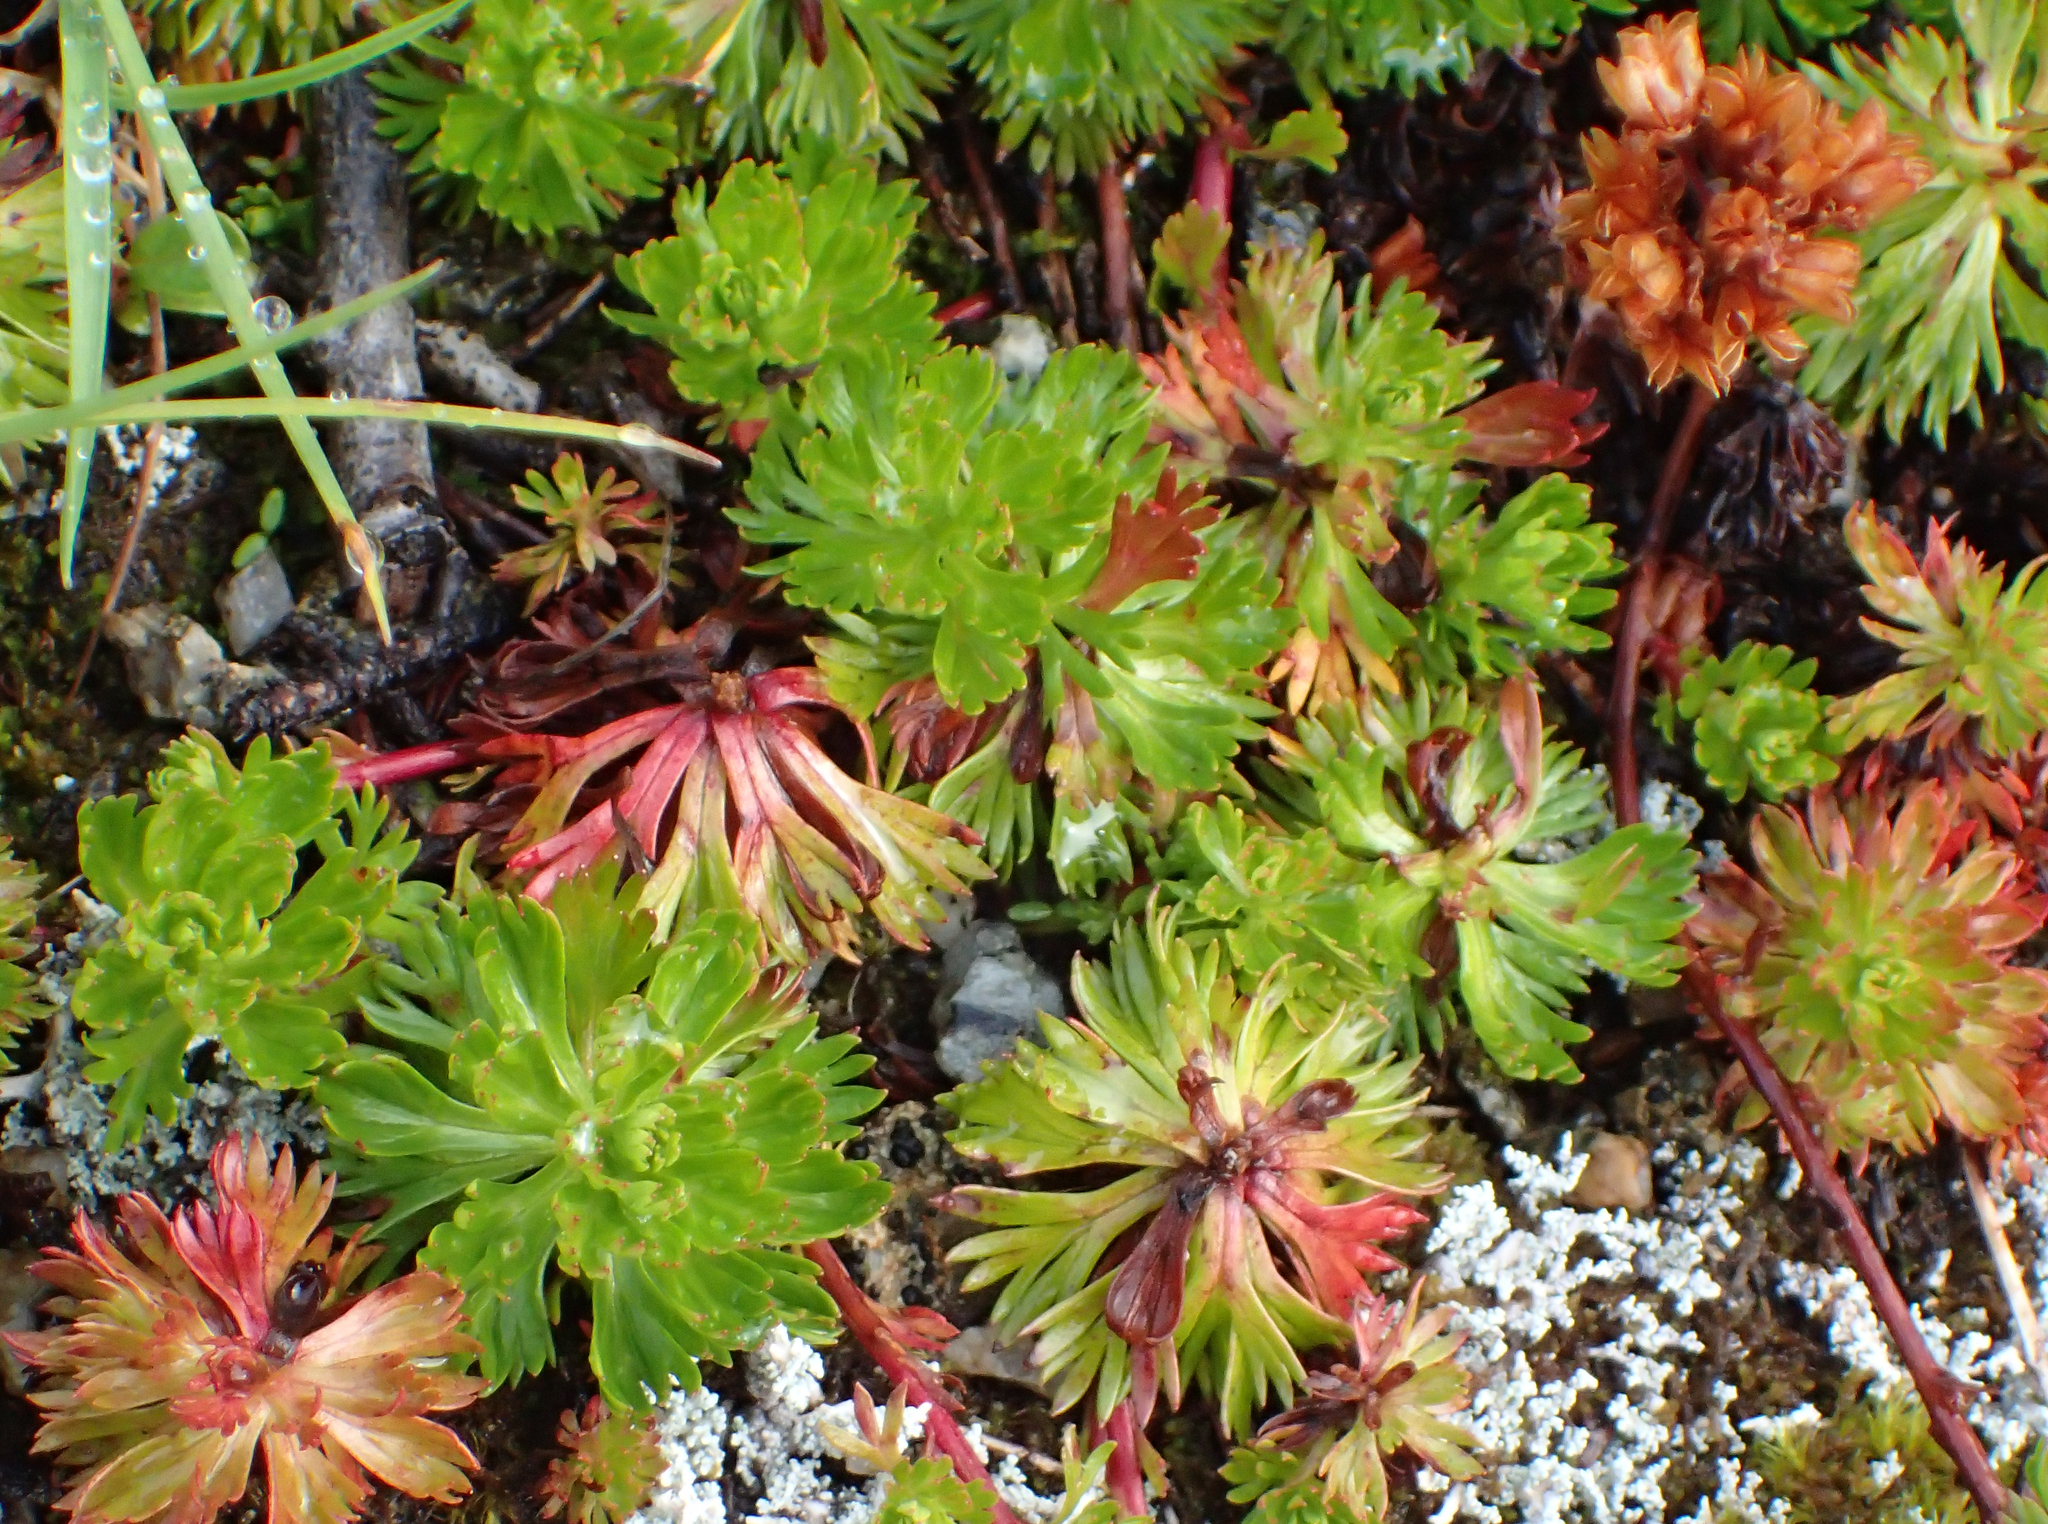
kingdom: Plantae
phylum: Tracheophyta
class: Magnoliopsida
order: Rosales
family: Rosaceae
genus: Luetkea
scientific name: Luetkea pectinata
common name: Partridgefoot
